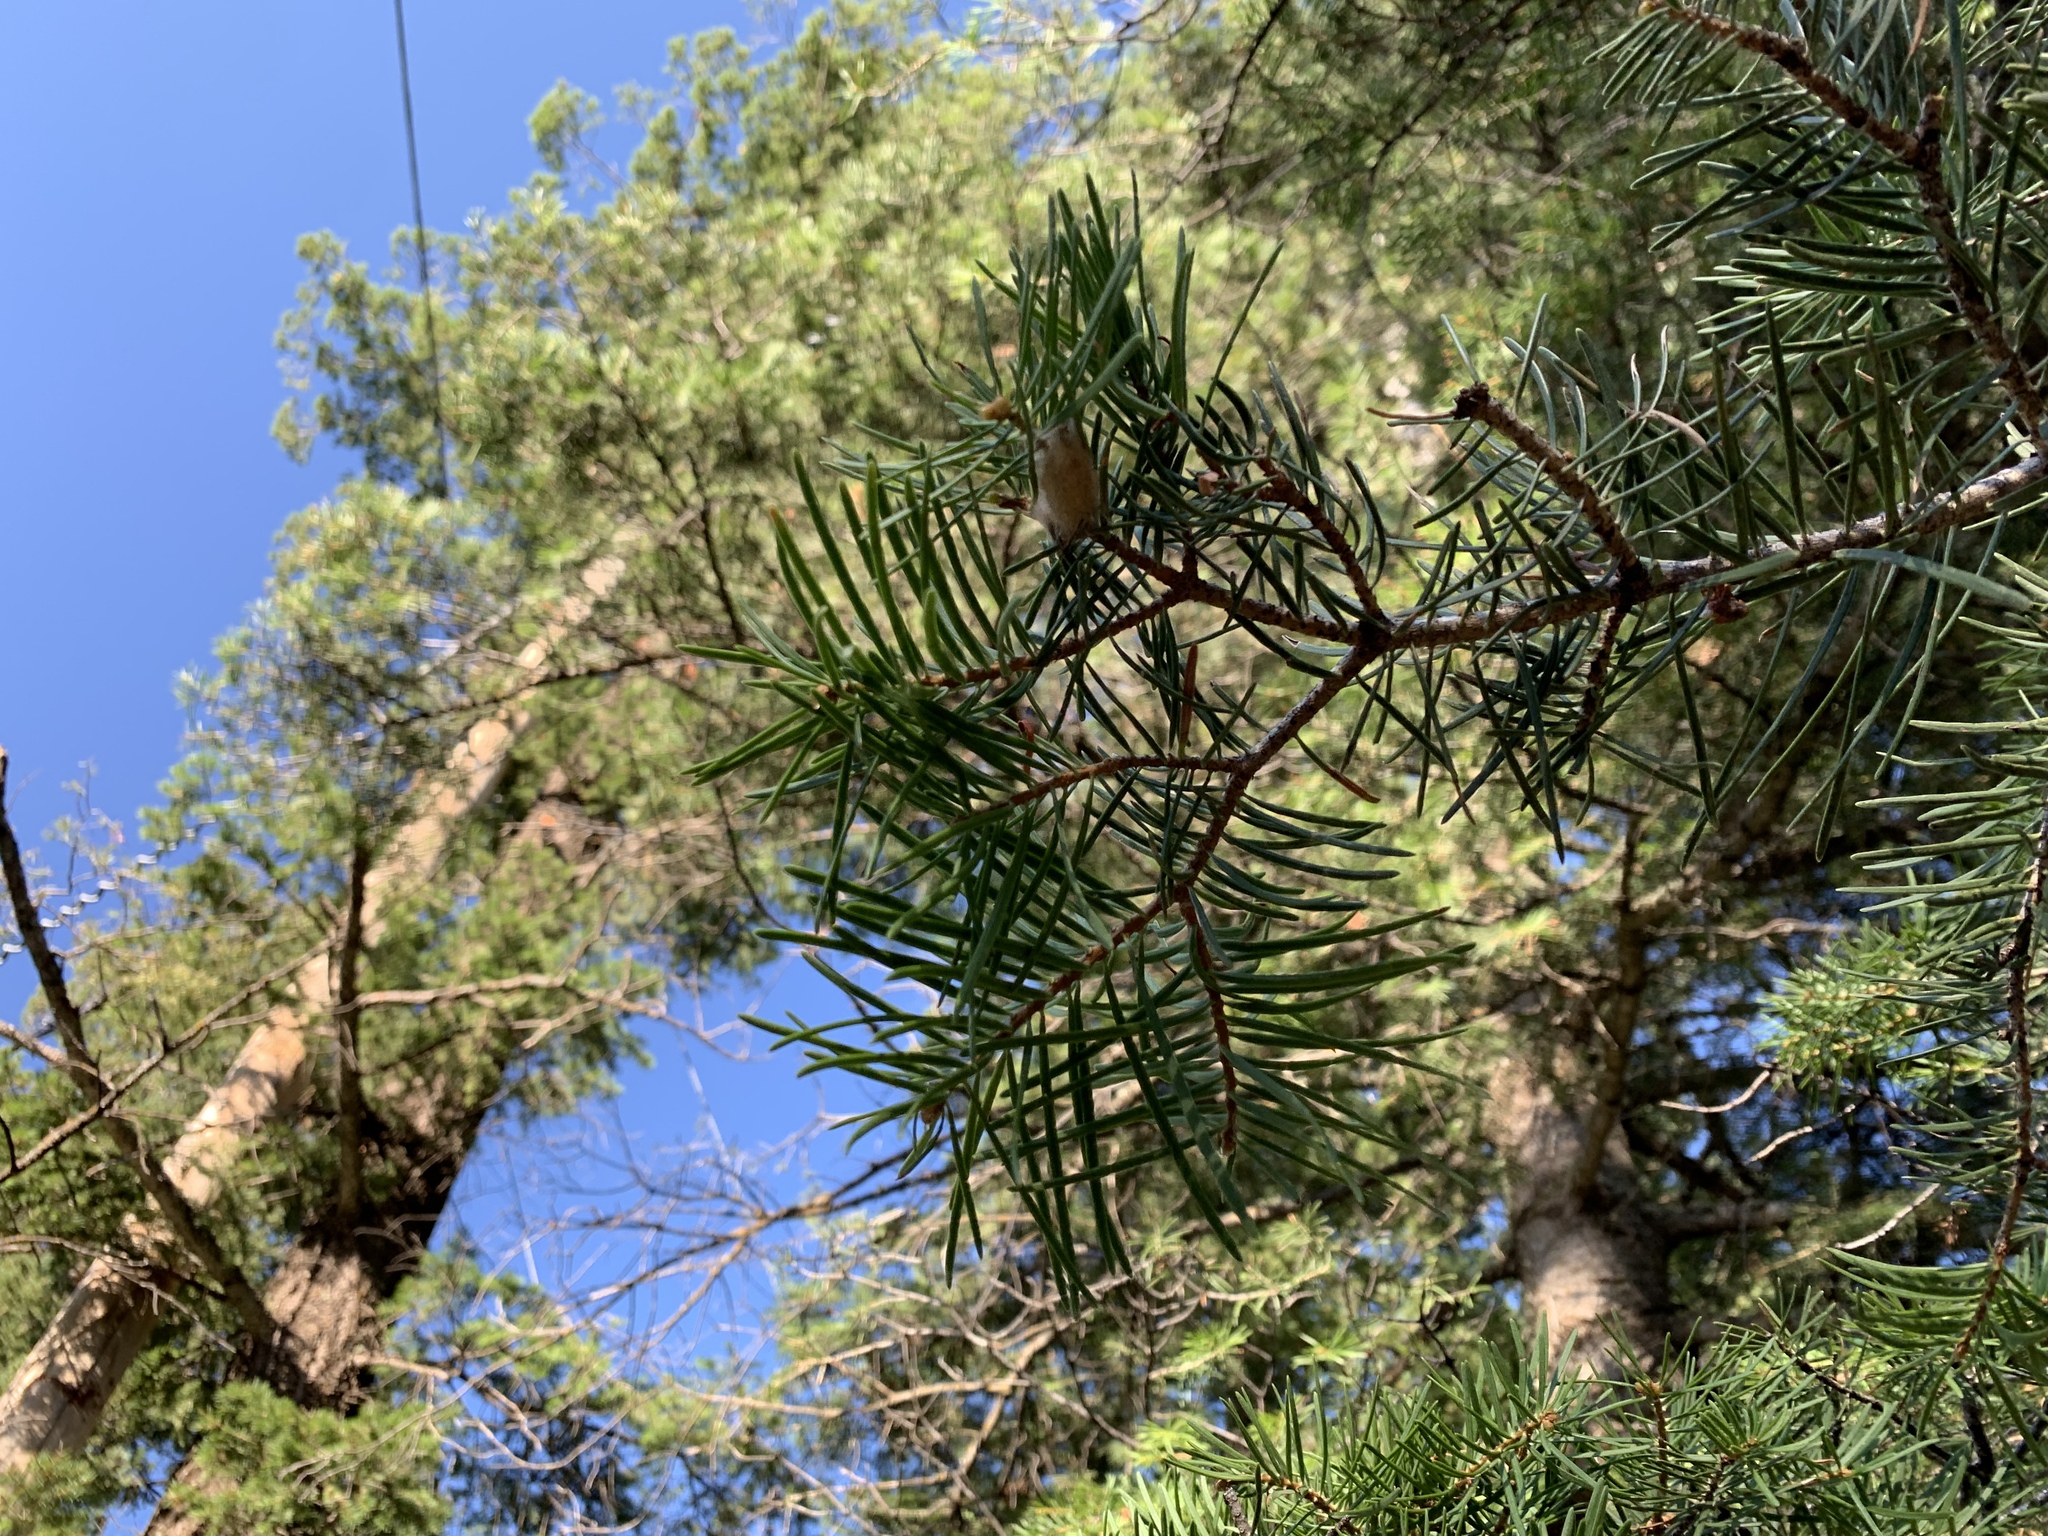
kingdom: Plantae
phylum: Tracheophyta
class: Pinopsida
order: Pinales
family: Pinaceae
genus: Abies
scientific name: Abies concolor
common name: Colorado fir
